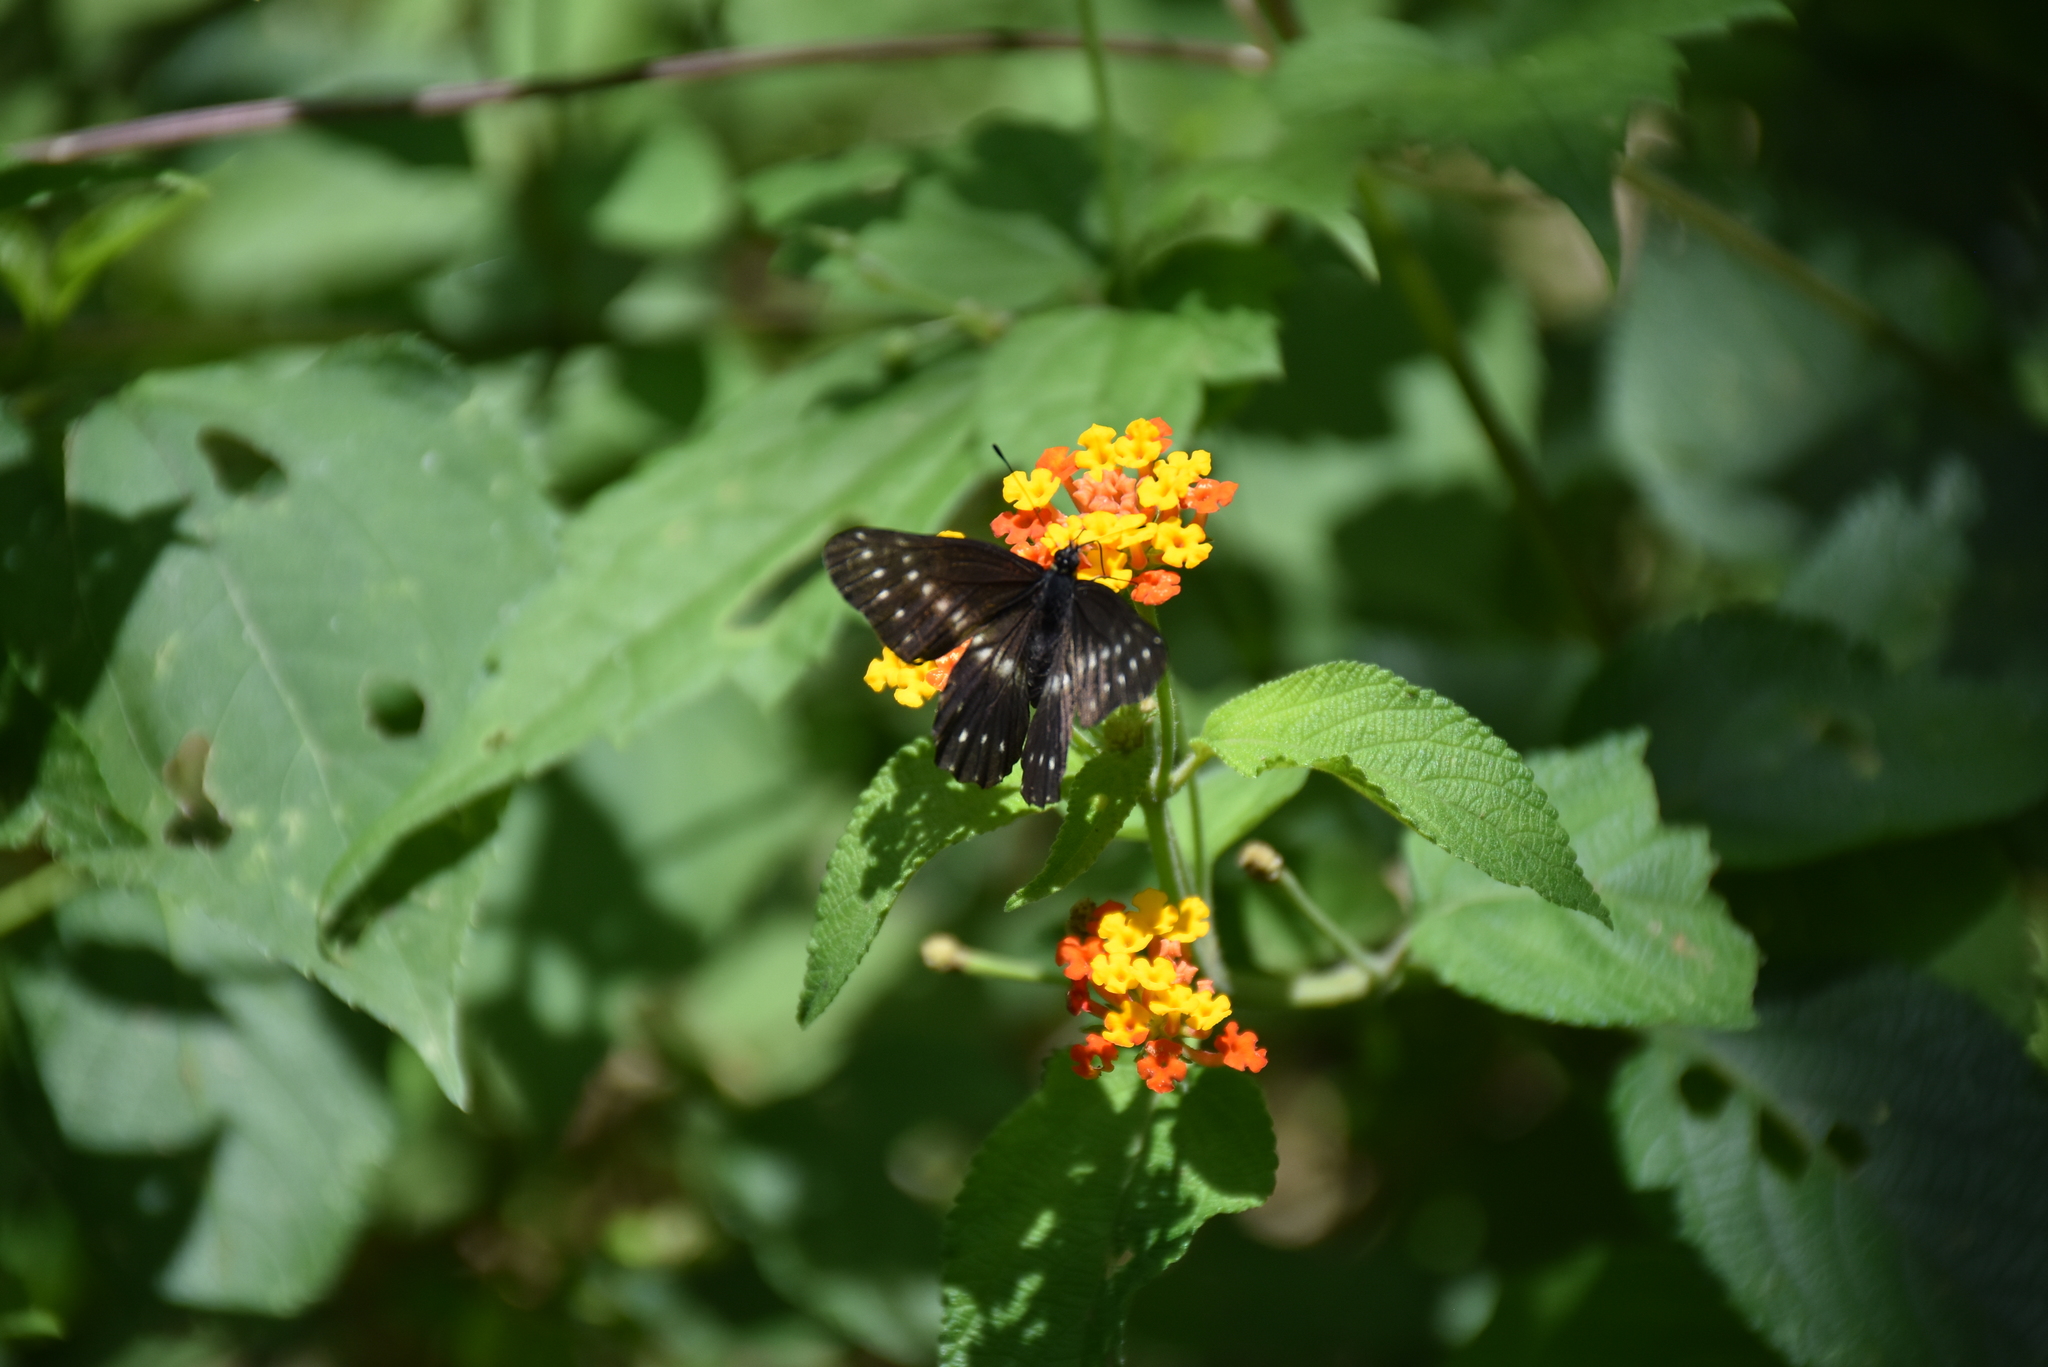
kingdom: Animalia
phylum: Arthropoda
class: Insecta
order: Lepidoptera
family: Pieridae
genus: Archonias
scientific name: Archonias flisa
